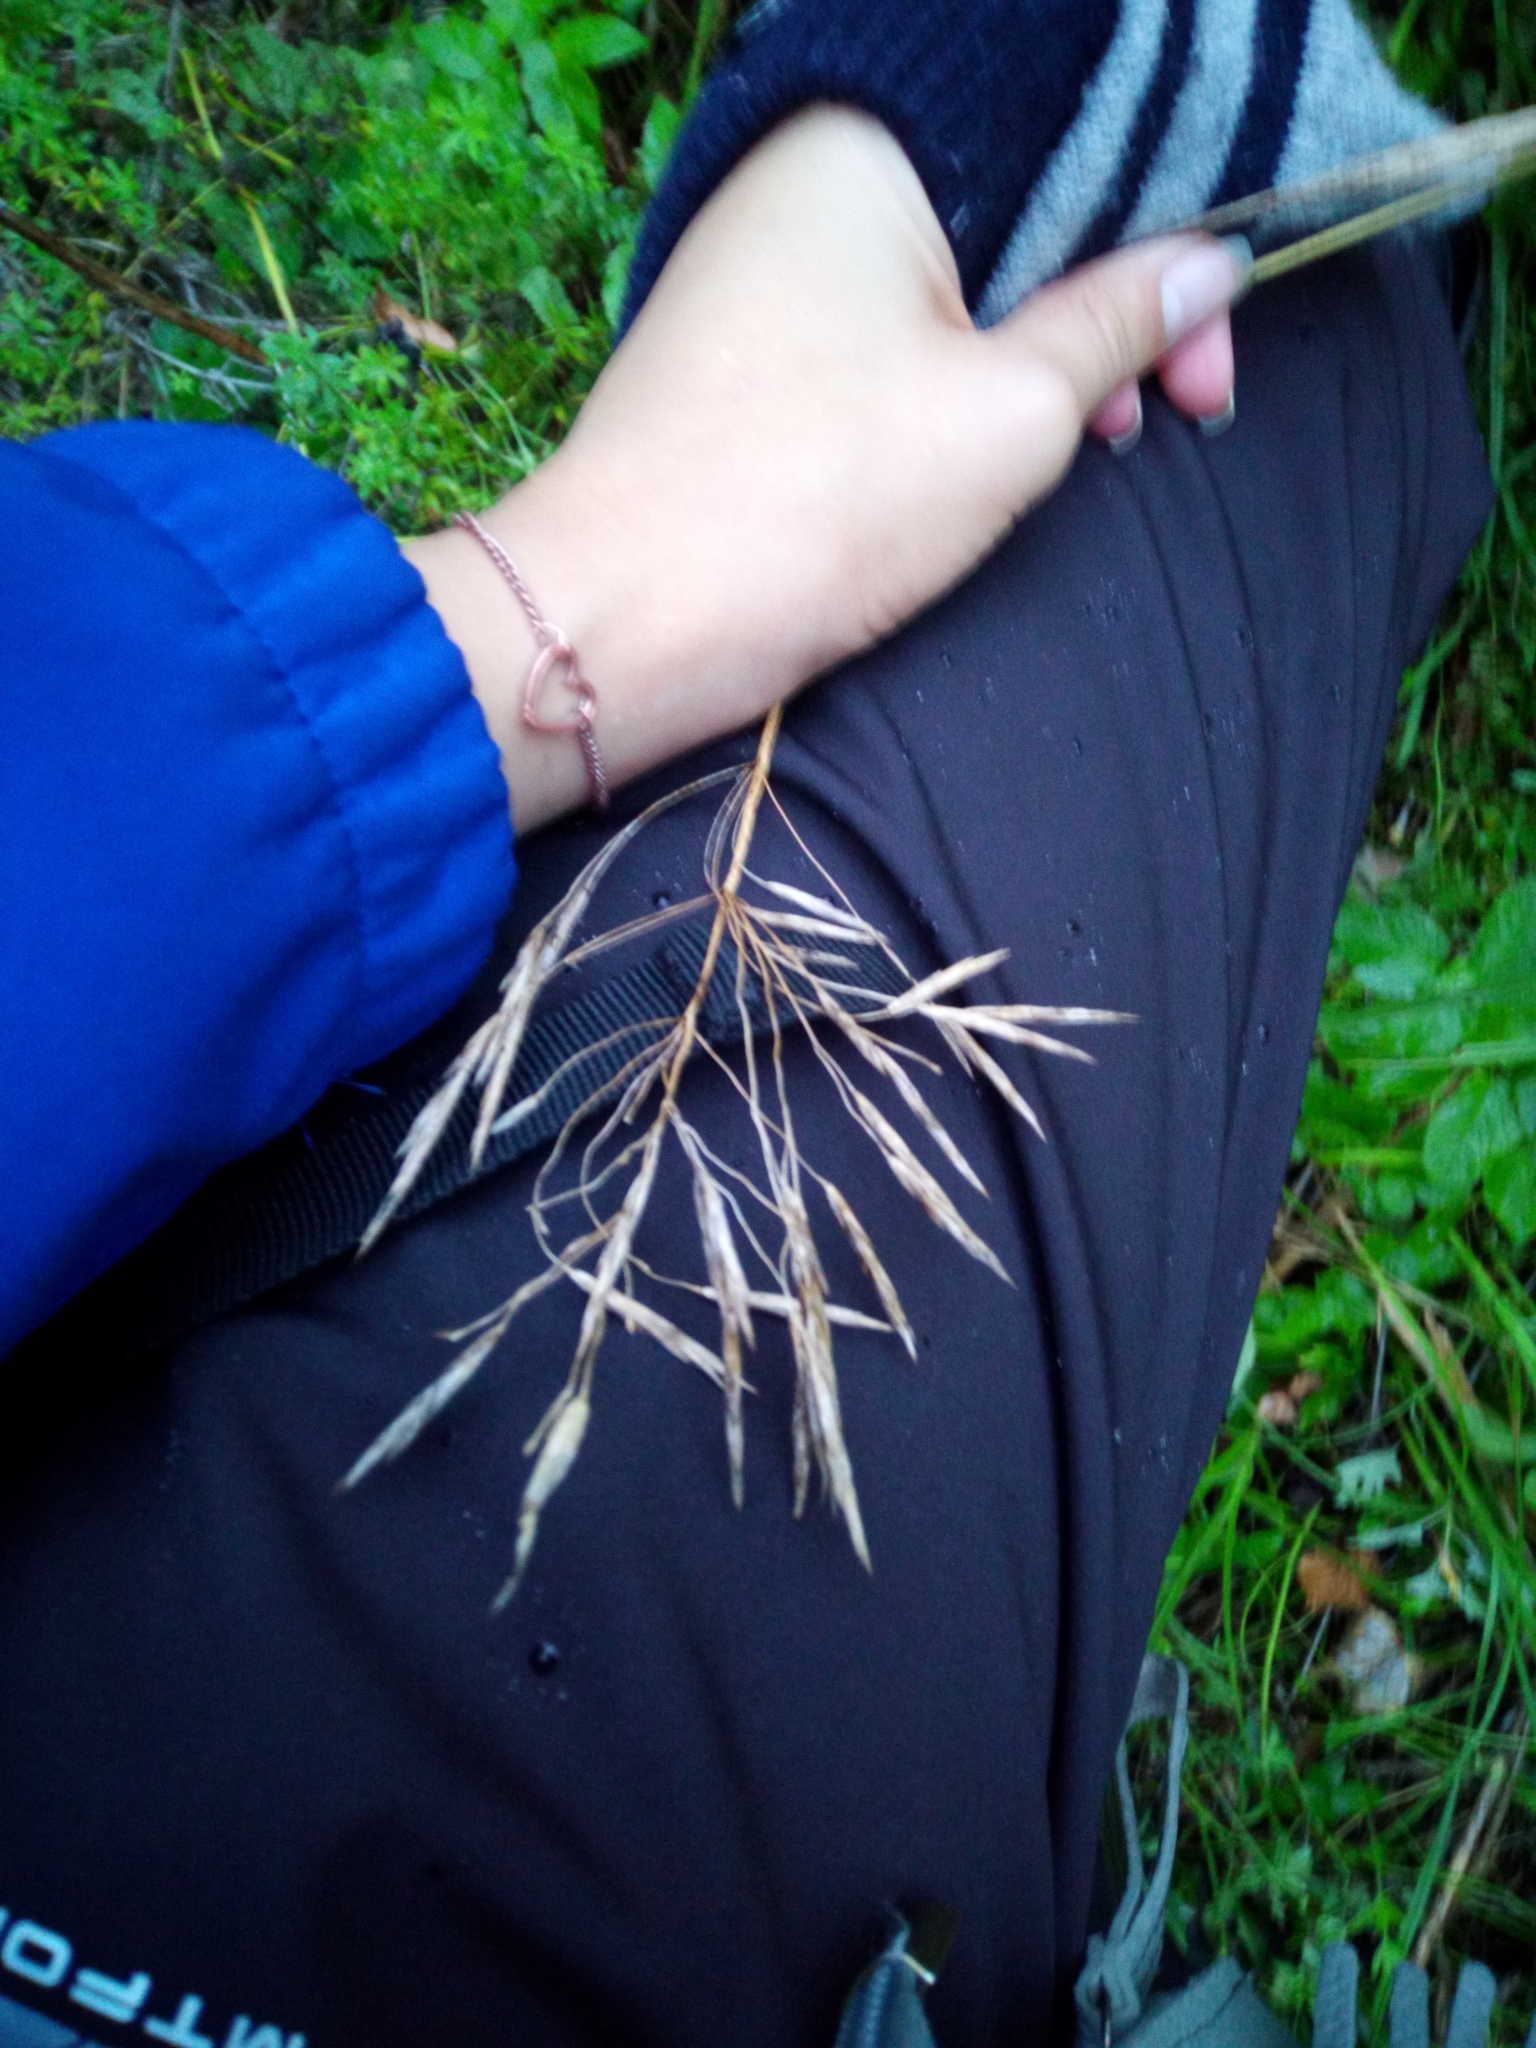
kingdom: Plantae
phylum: Tracheophyta
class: Liliopsida
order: Poales
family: Poaceae
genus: Bromus
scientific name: Bromus inermis
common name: Smooth brome
